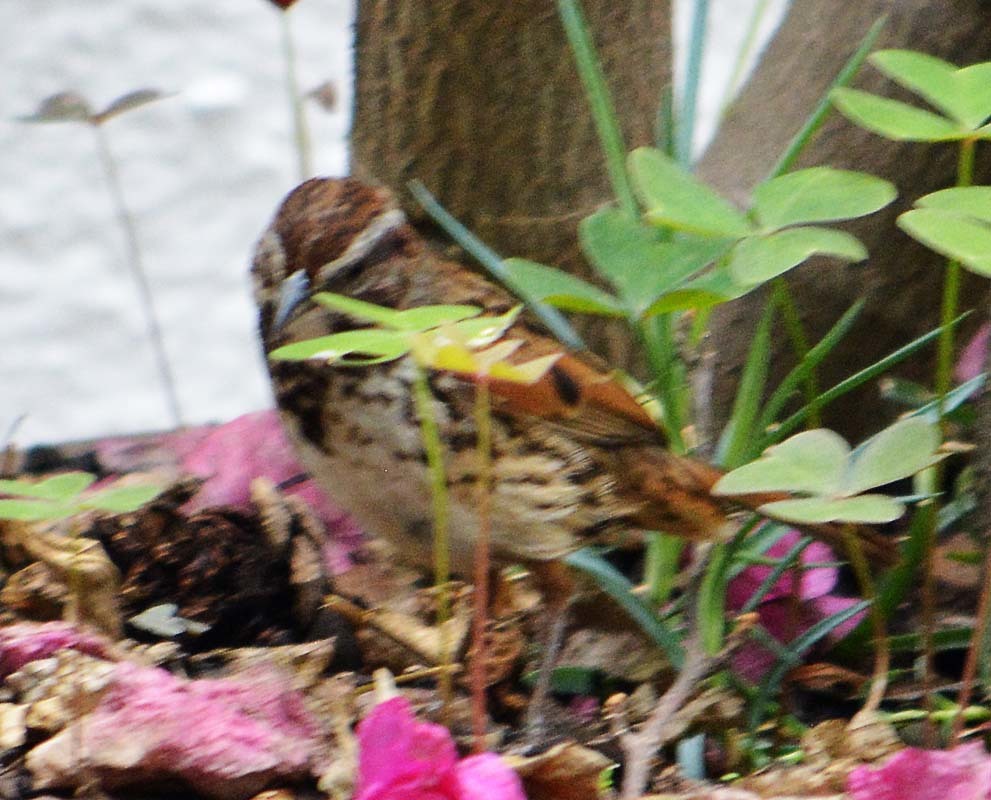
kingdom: Animalia
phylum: Chordata
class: Aves
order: Passeriformes
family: Passerellidae
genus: Melospiza
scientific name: Melospiza melodia
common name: Song sparrow
